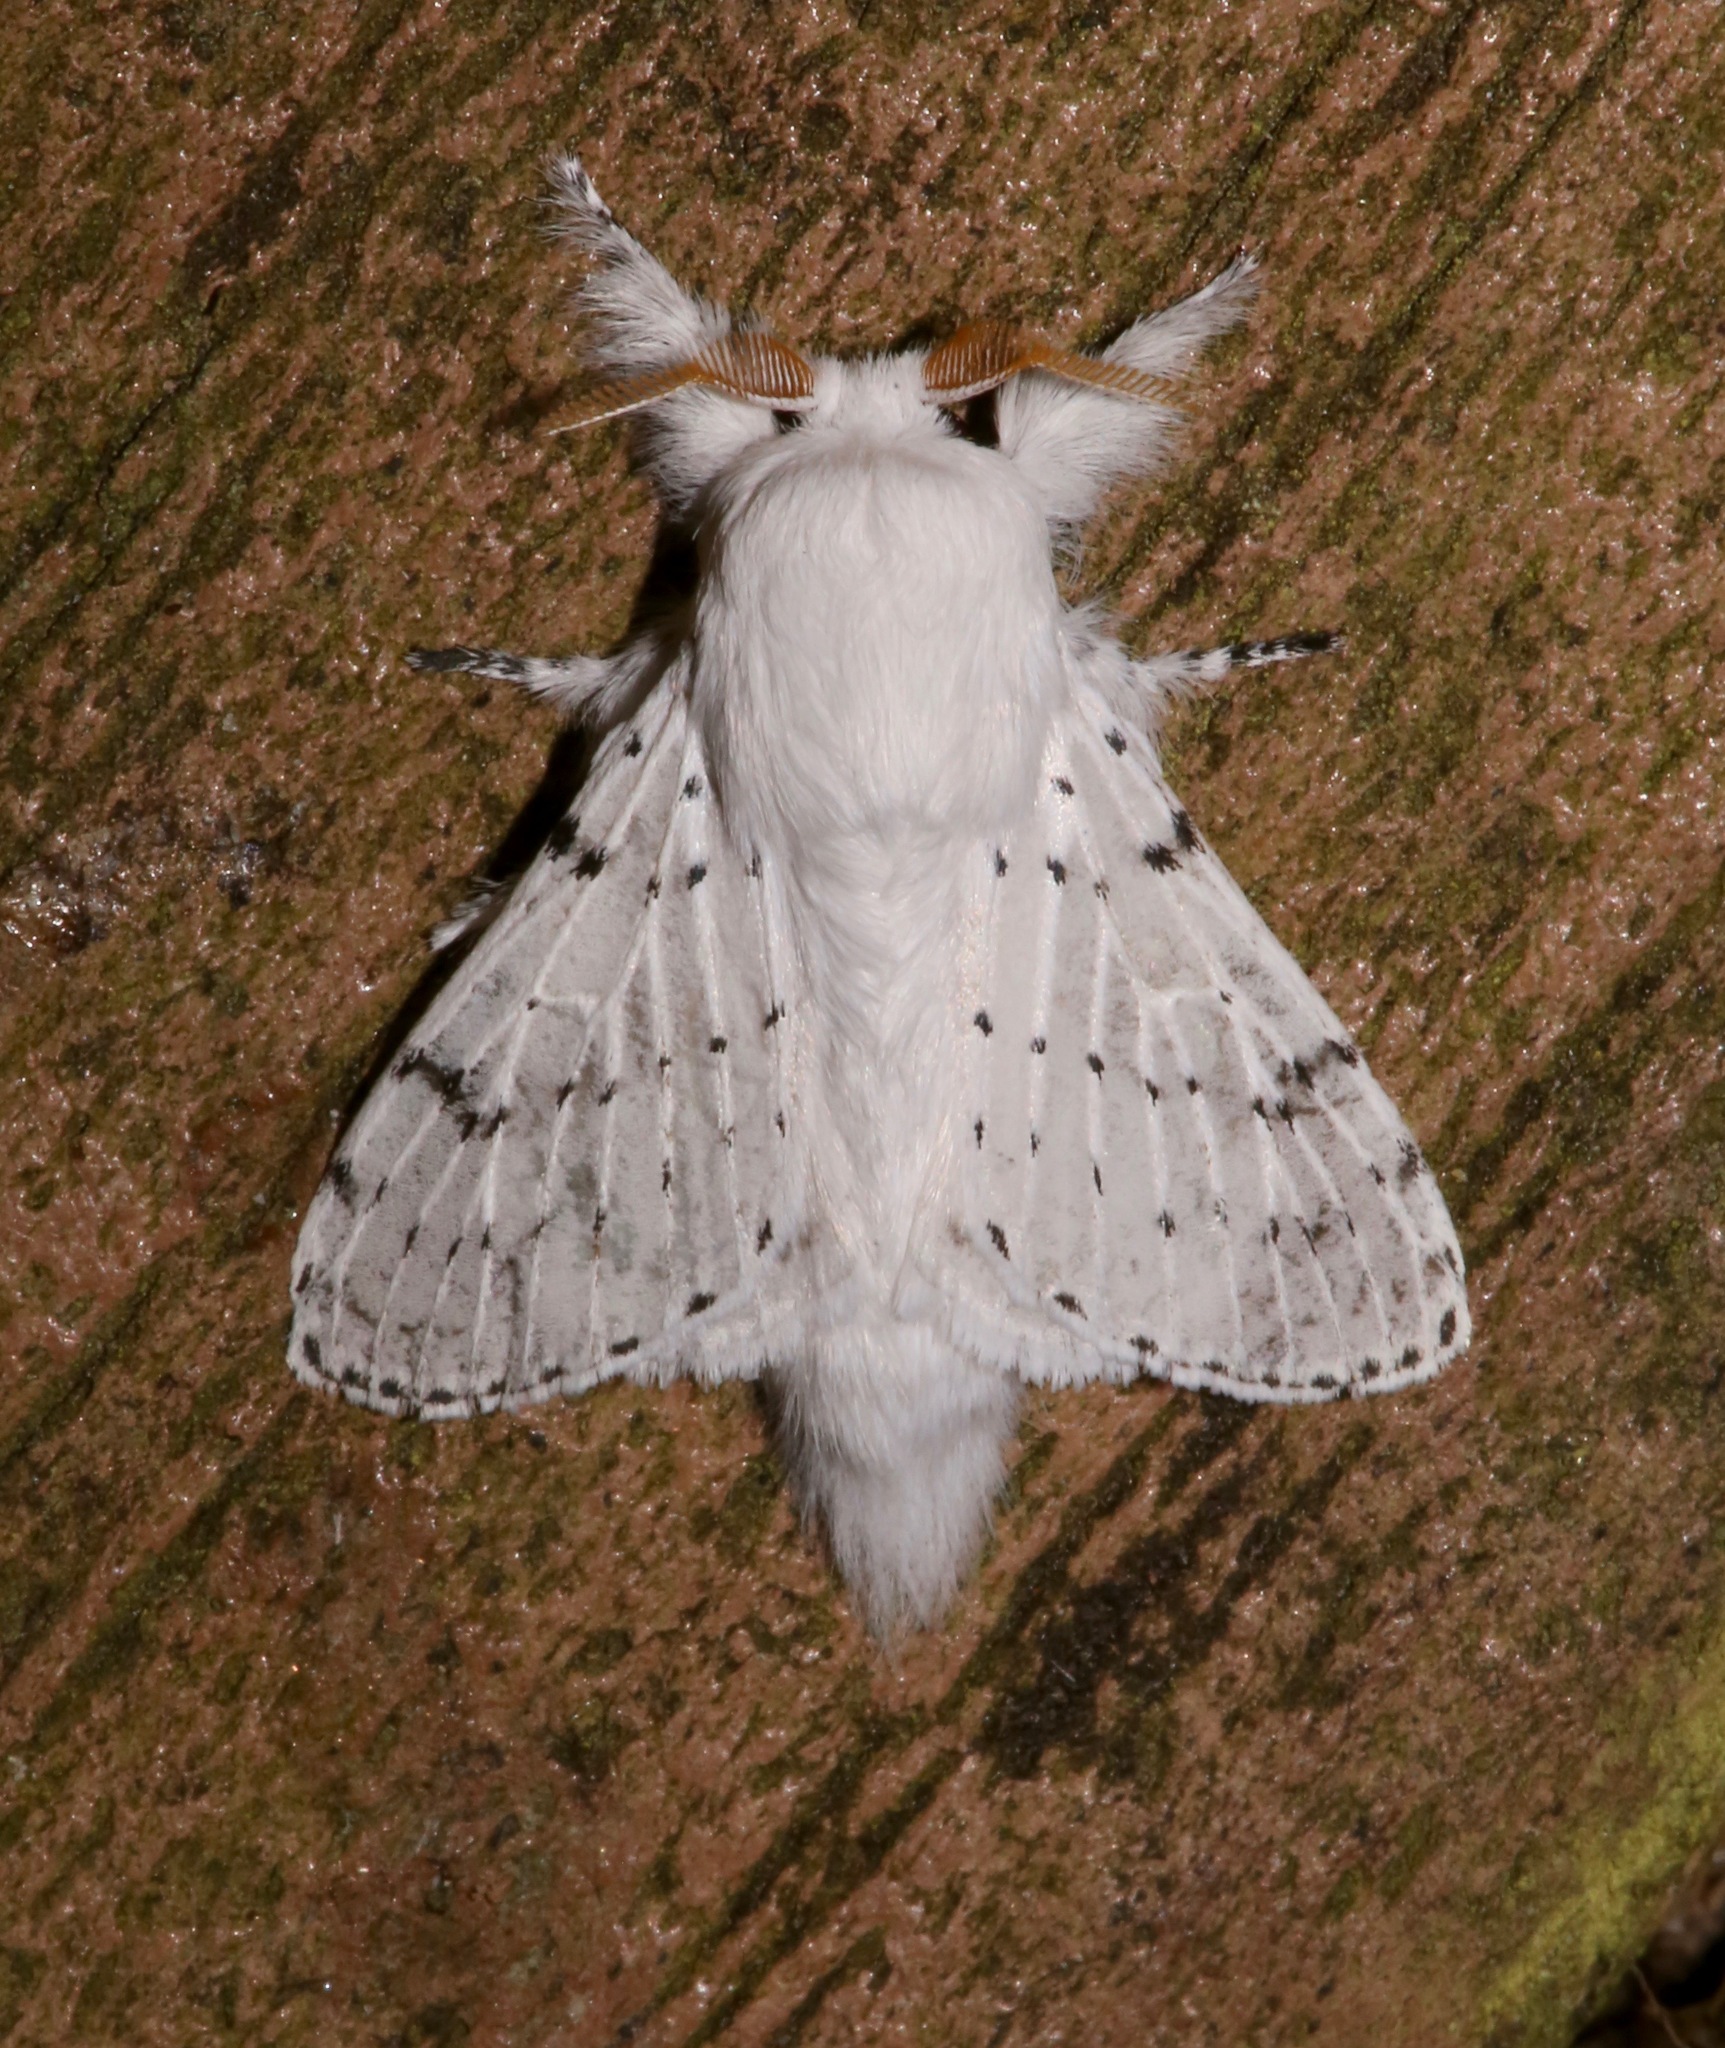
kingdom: Animalia
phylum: Arthropoda
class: Insecta
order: Lepidoptera
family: Lasiocampidae
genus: Artace
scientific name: Artace cribrarius
